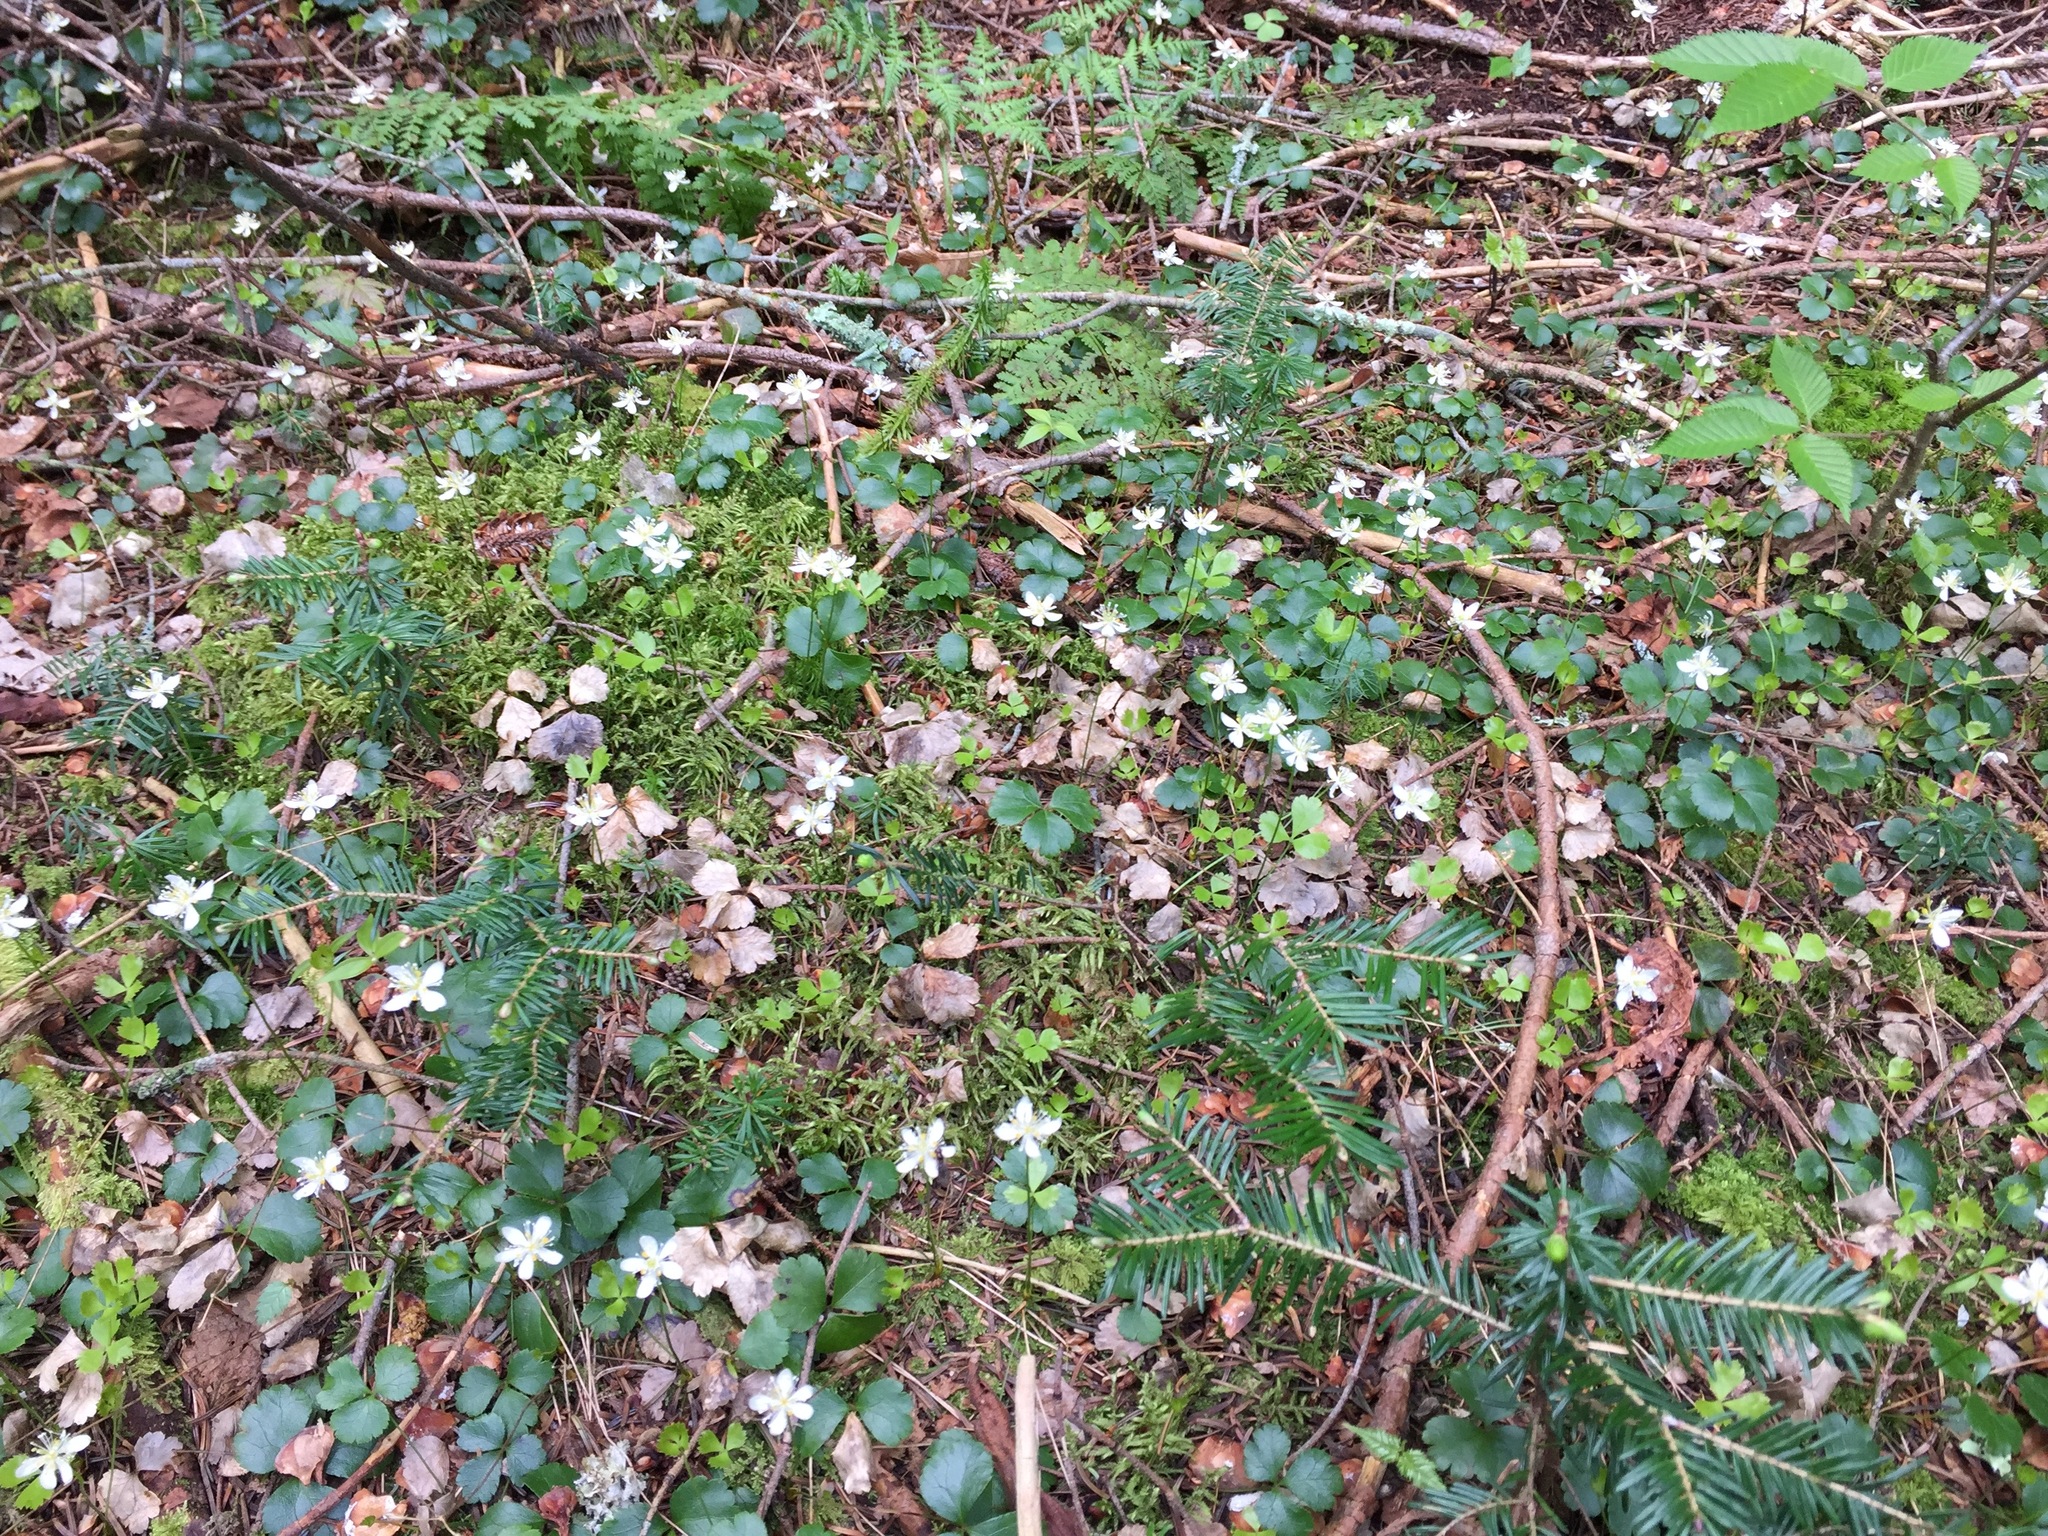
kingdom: Plantae
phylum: Tracheophyta
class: Magnoliopsida
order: Ranunculales
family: Ranunculaceae
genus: Coptis
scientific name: Coptis trifolia
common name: Canker-root
